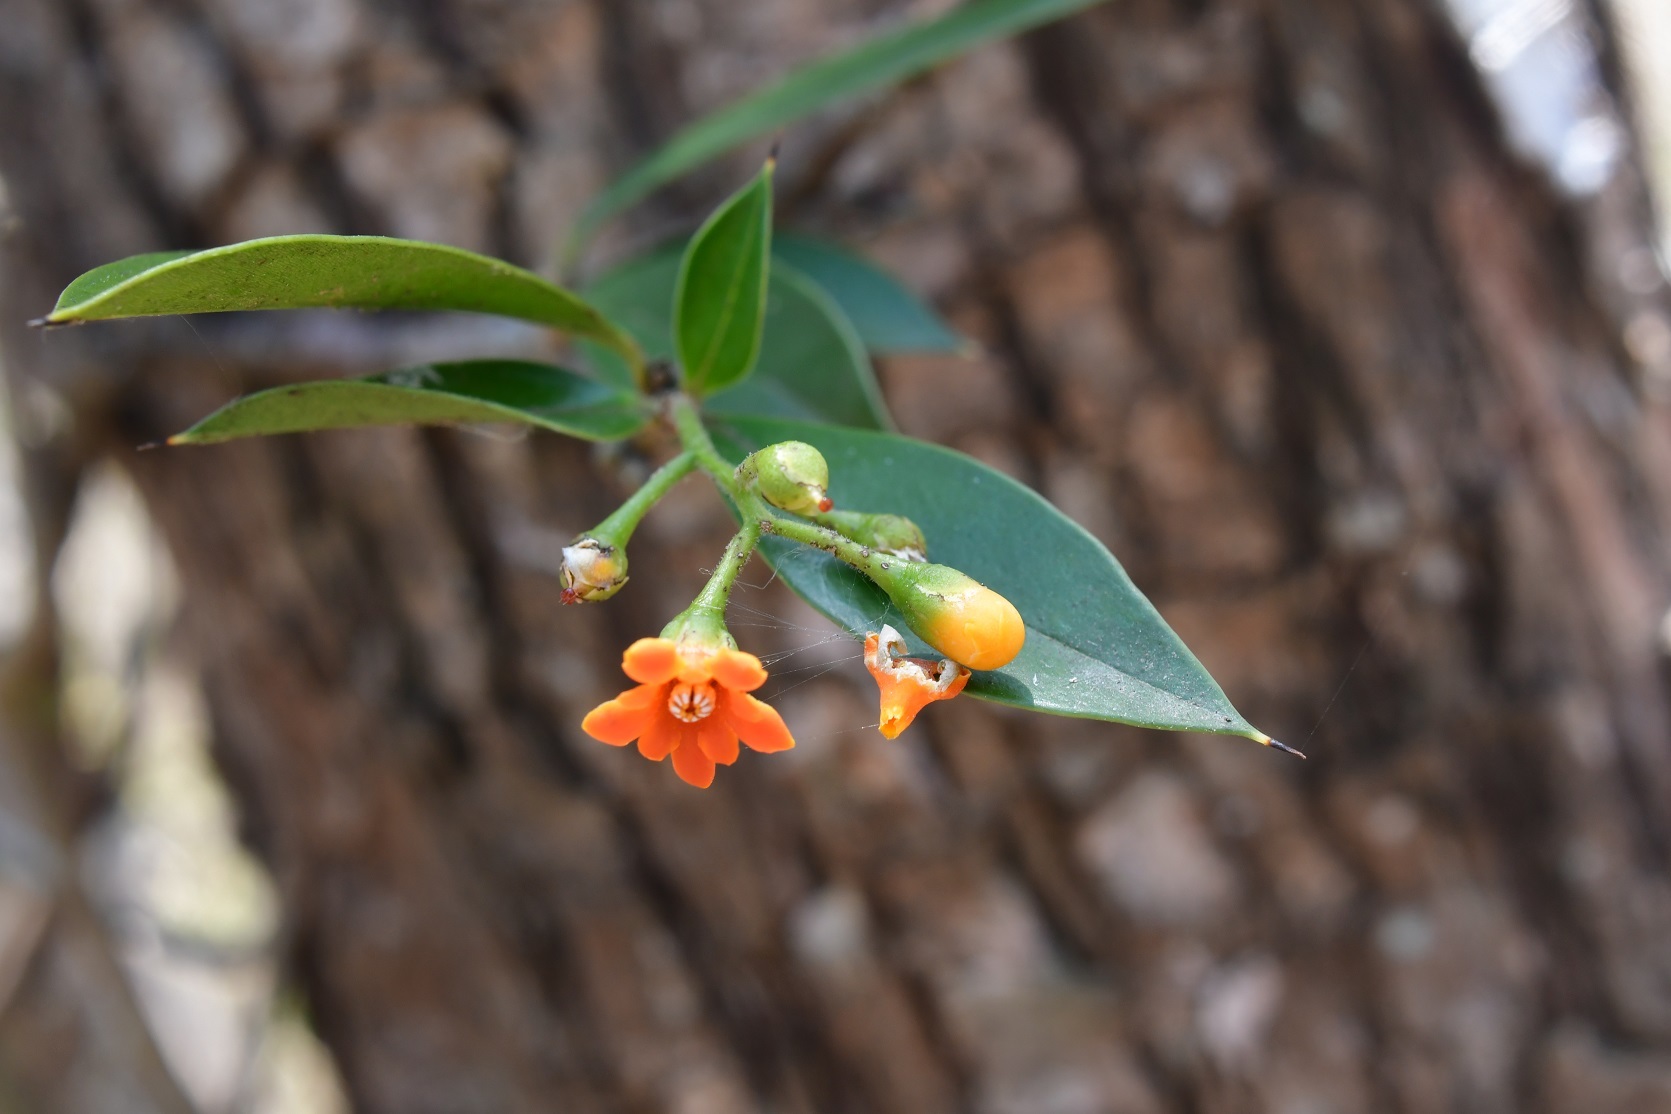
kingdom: Plantae
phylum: Tracheophyta
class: Magnoliopsida
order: Ericales
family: Primulaceae
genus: Bonellia
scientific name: Bonellia macrocarpa
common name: Primrose
